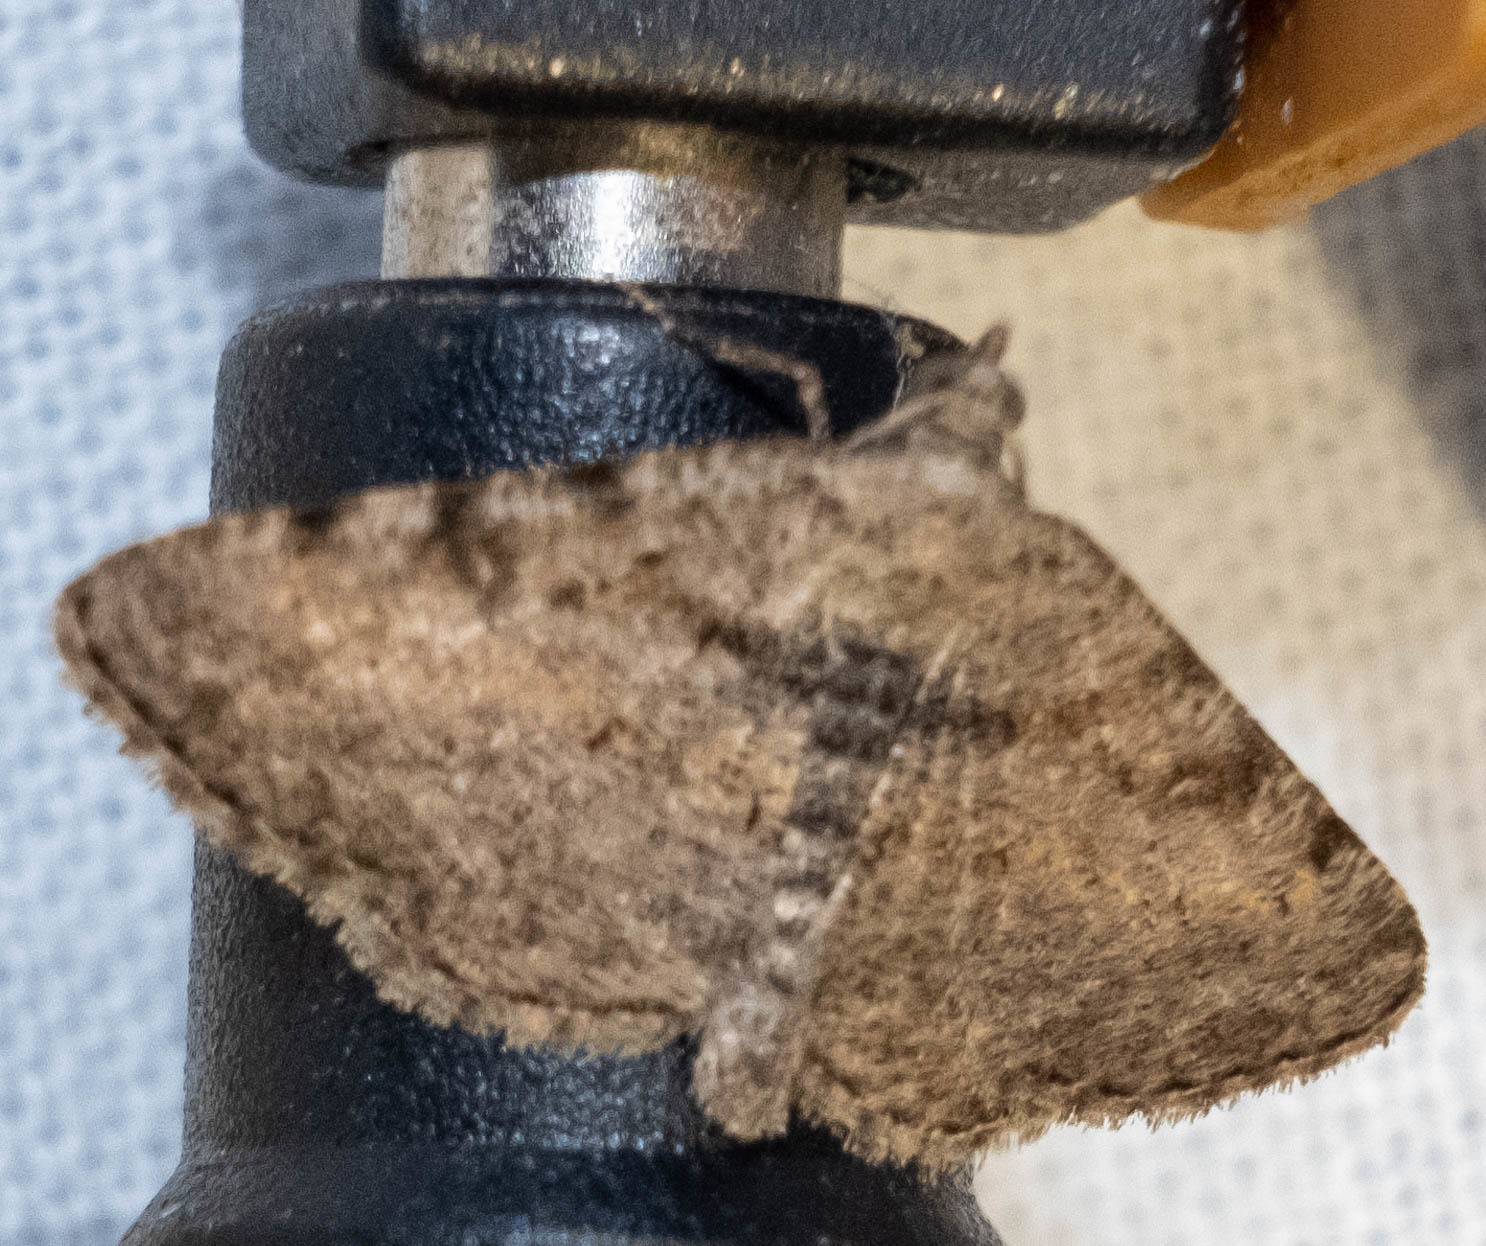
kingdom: Animalia
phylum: Arthropoda
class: Insecta
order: Lepidoptera
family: Geometridae
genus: Digrammia
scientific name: Digrammia gnophosaria
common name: Hollow-spotted angle
